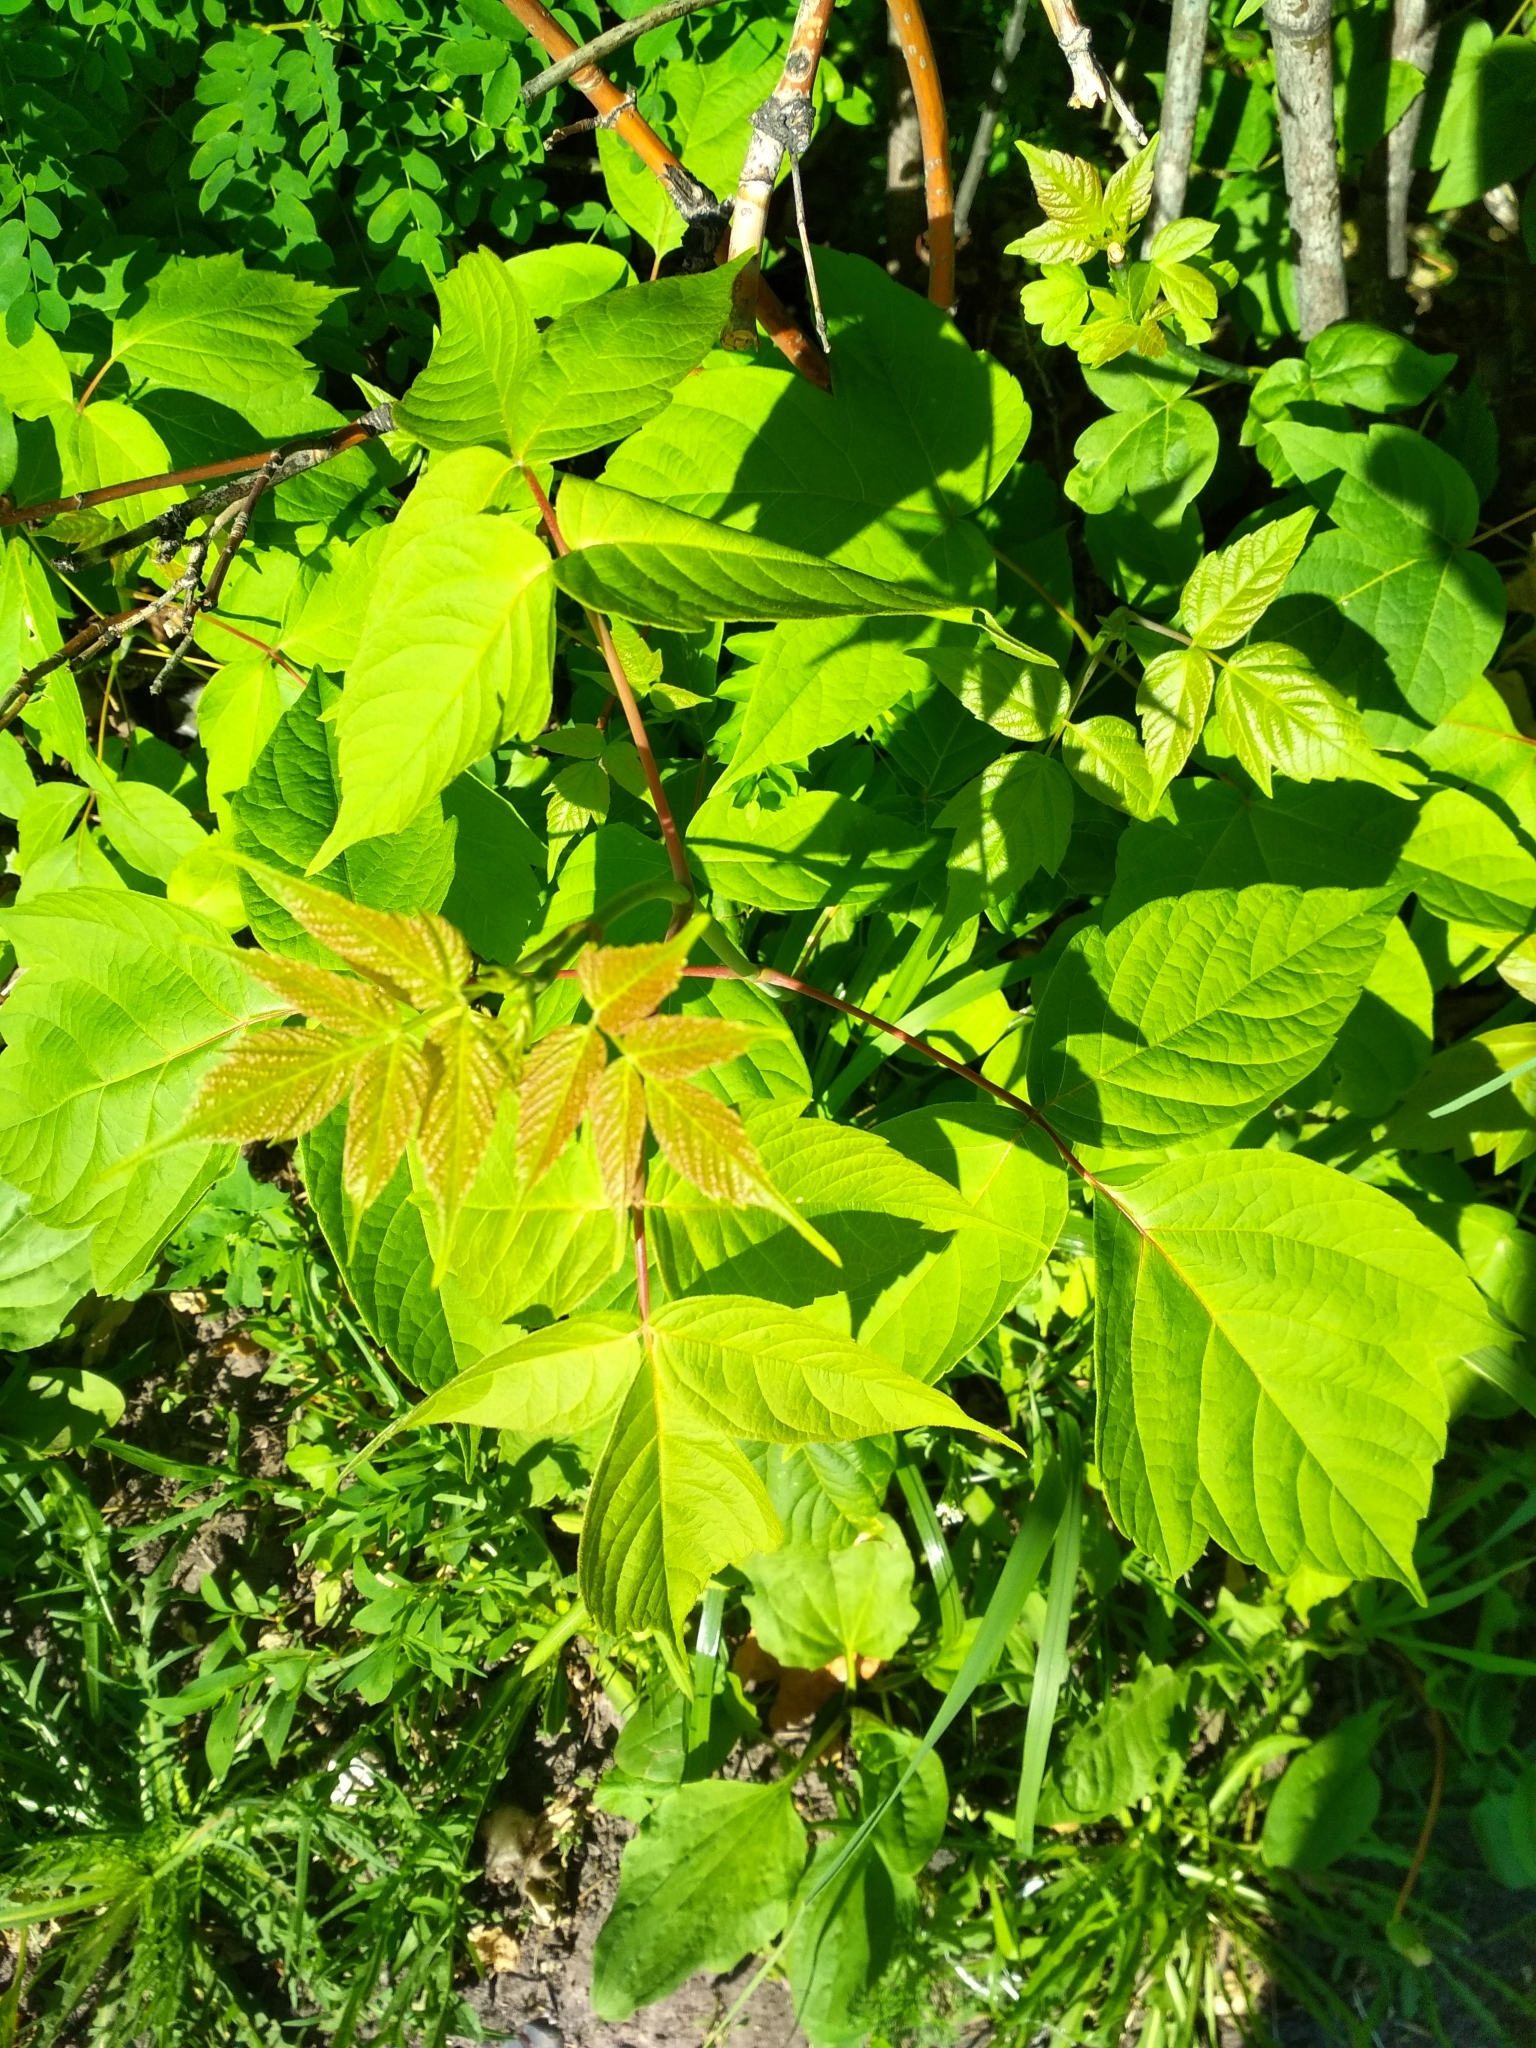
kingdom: Plantae
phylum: Tracheophyta
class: Magnoliopsida
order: Sapindales
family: Sapindaceae
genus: Acer
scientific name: Acer negundo
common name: Ashleaf maple
